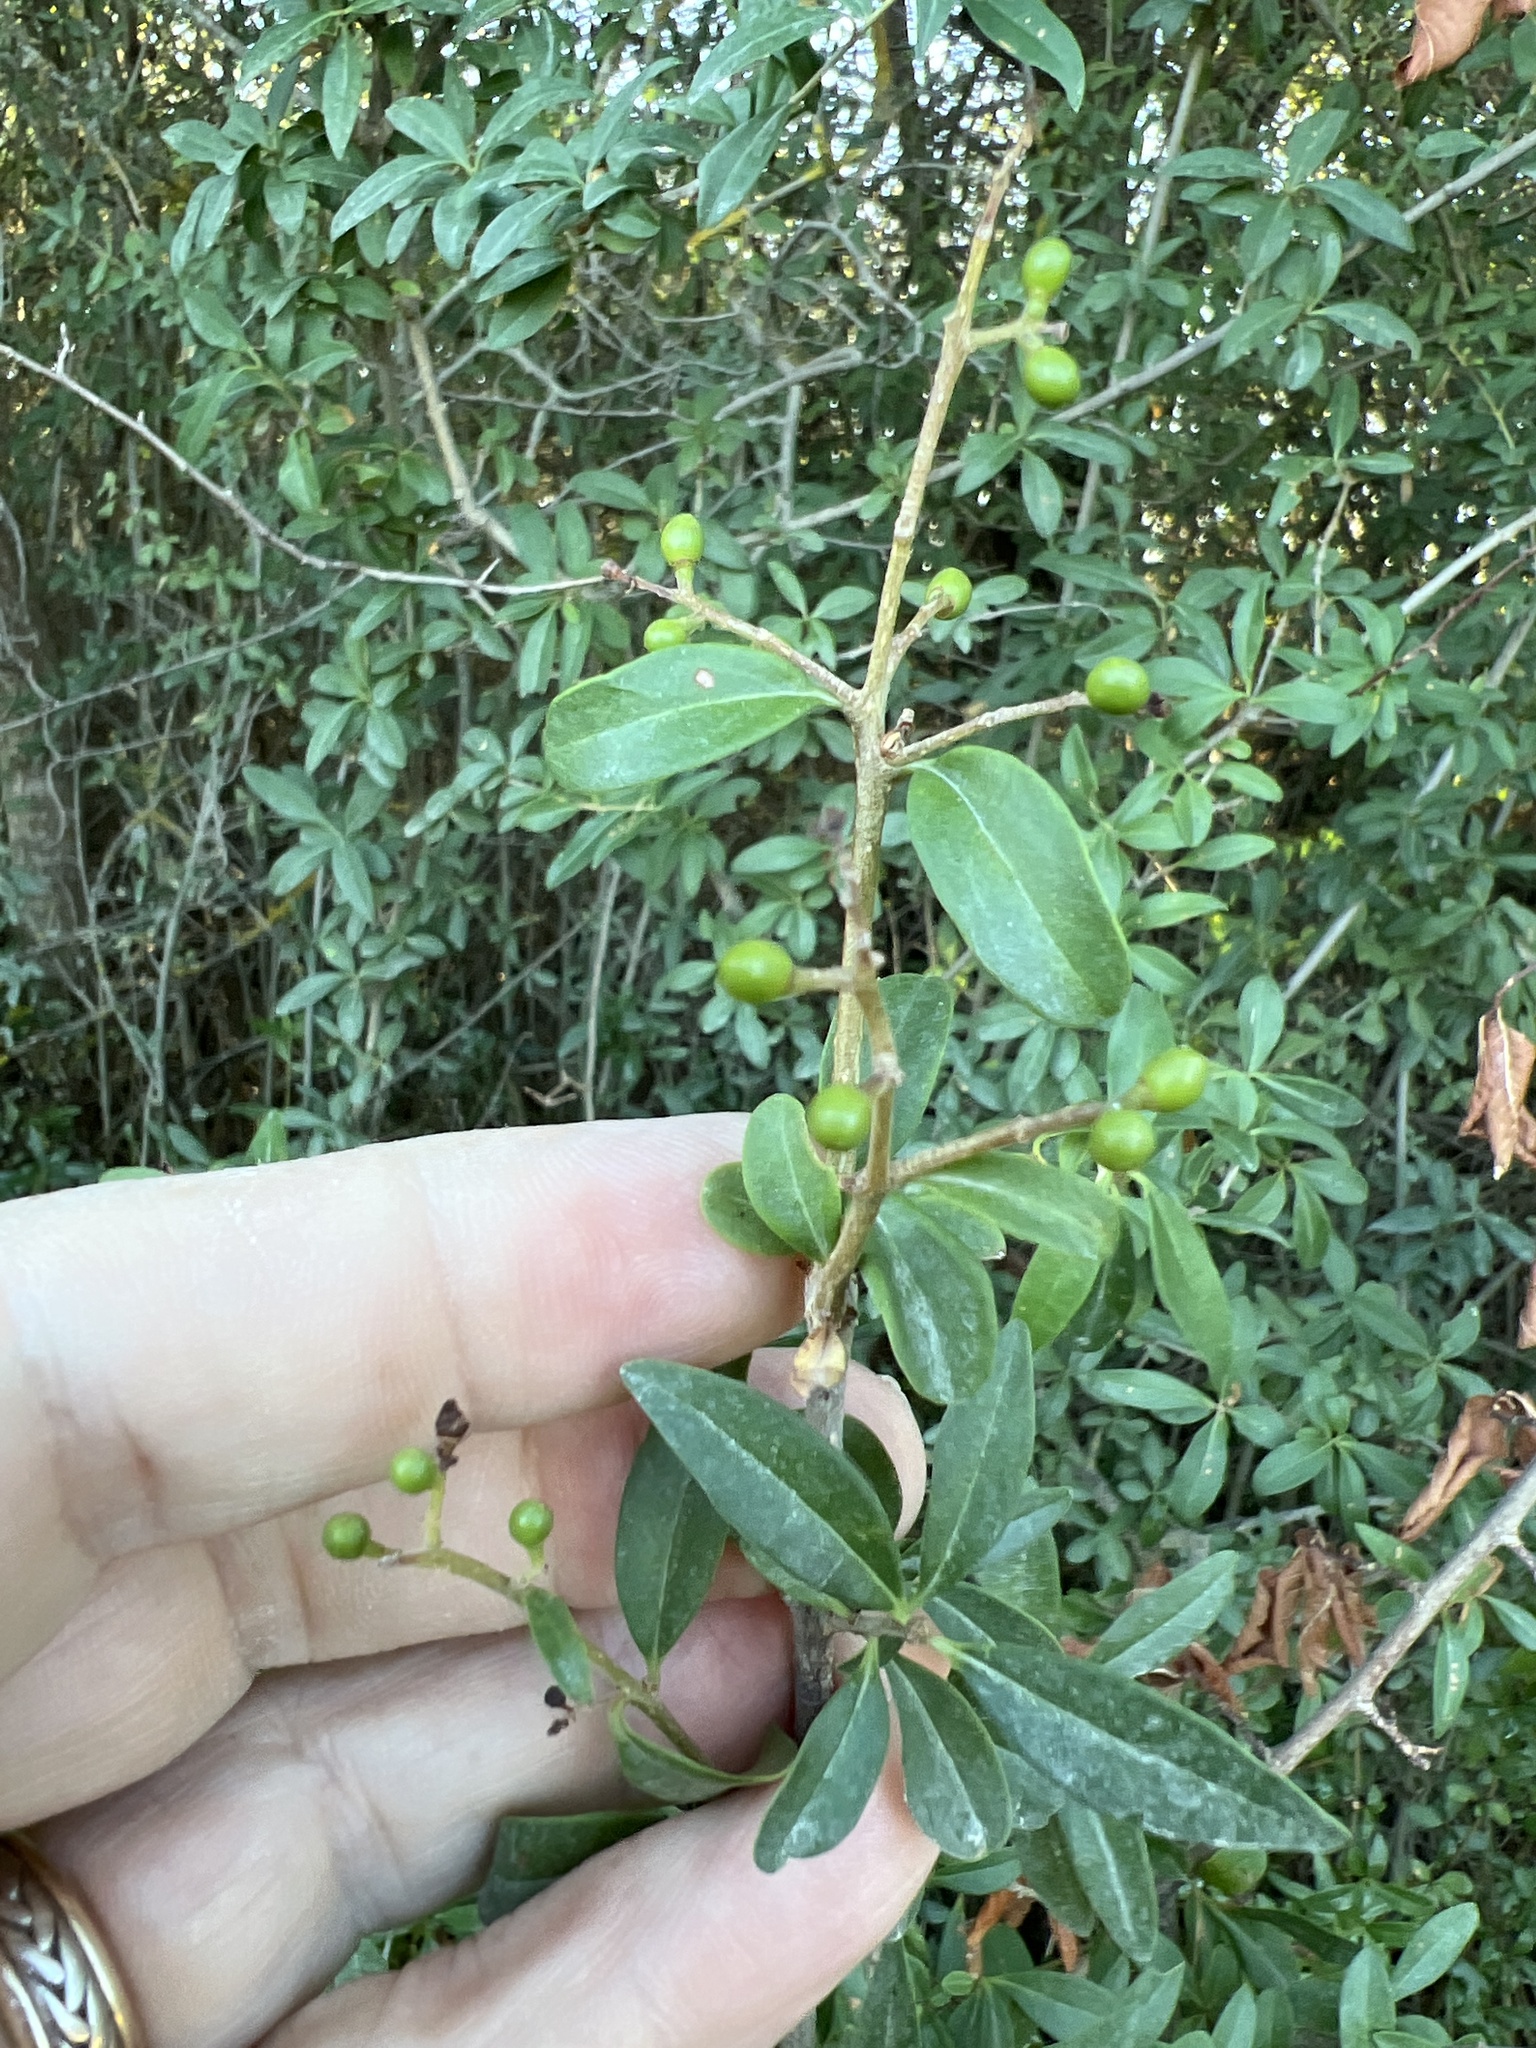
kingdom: Plantae
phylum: Tracheophyta
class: Magnoliopsida
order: Lamiales
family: Oleaceae
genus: Ligustrum
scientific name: Ligustrum vulgare
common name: Wild privet
